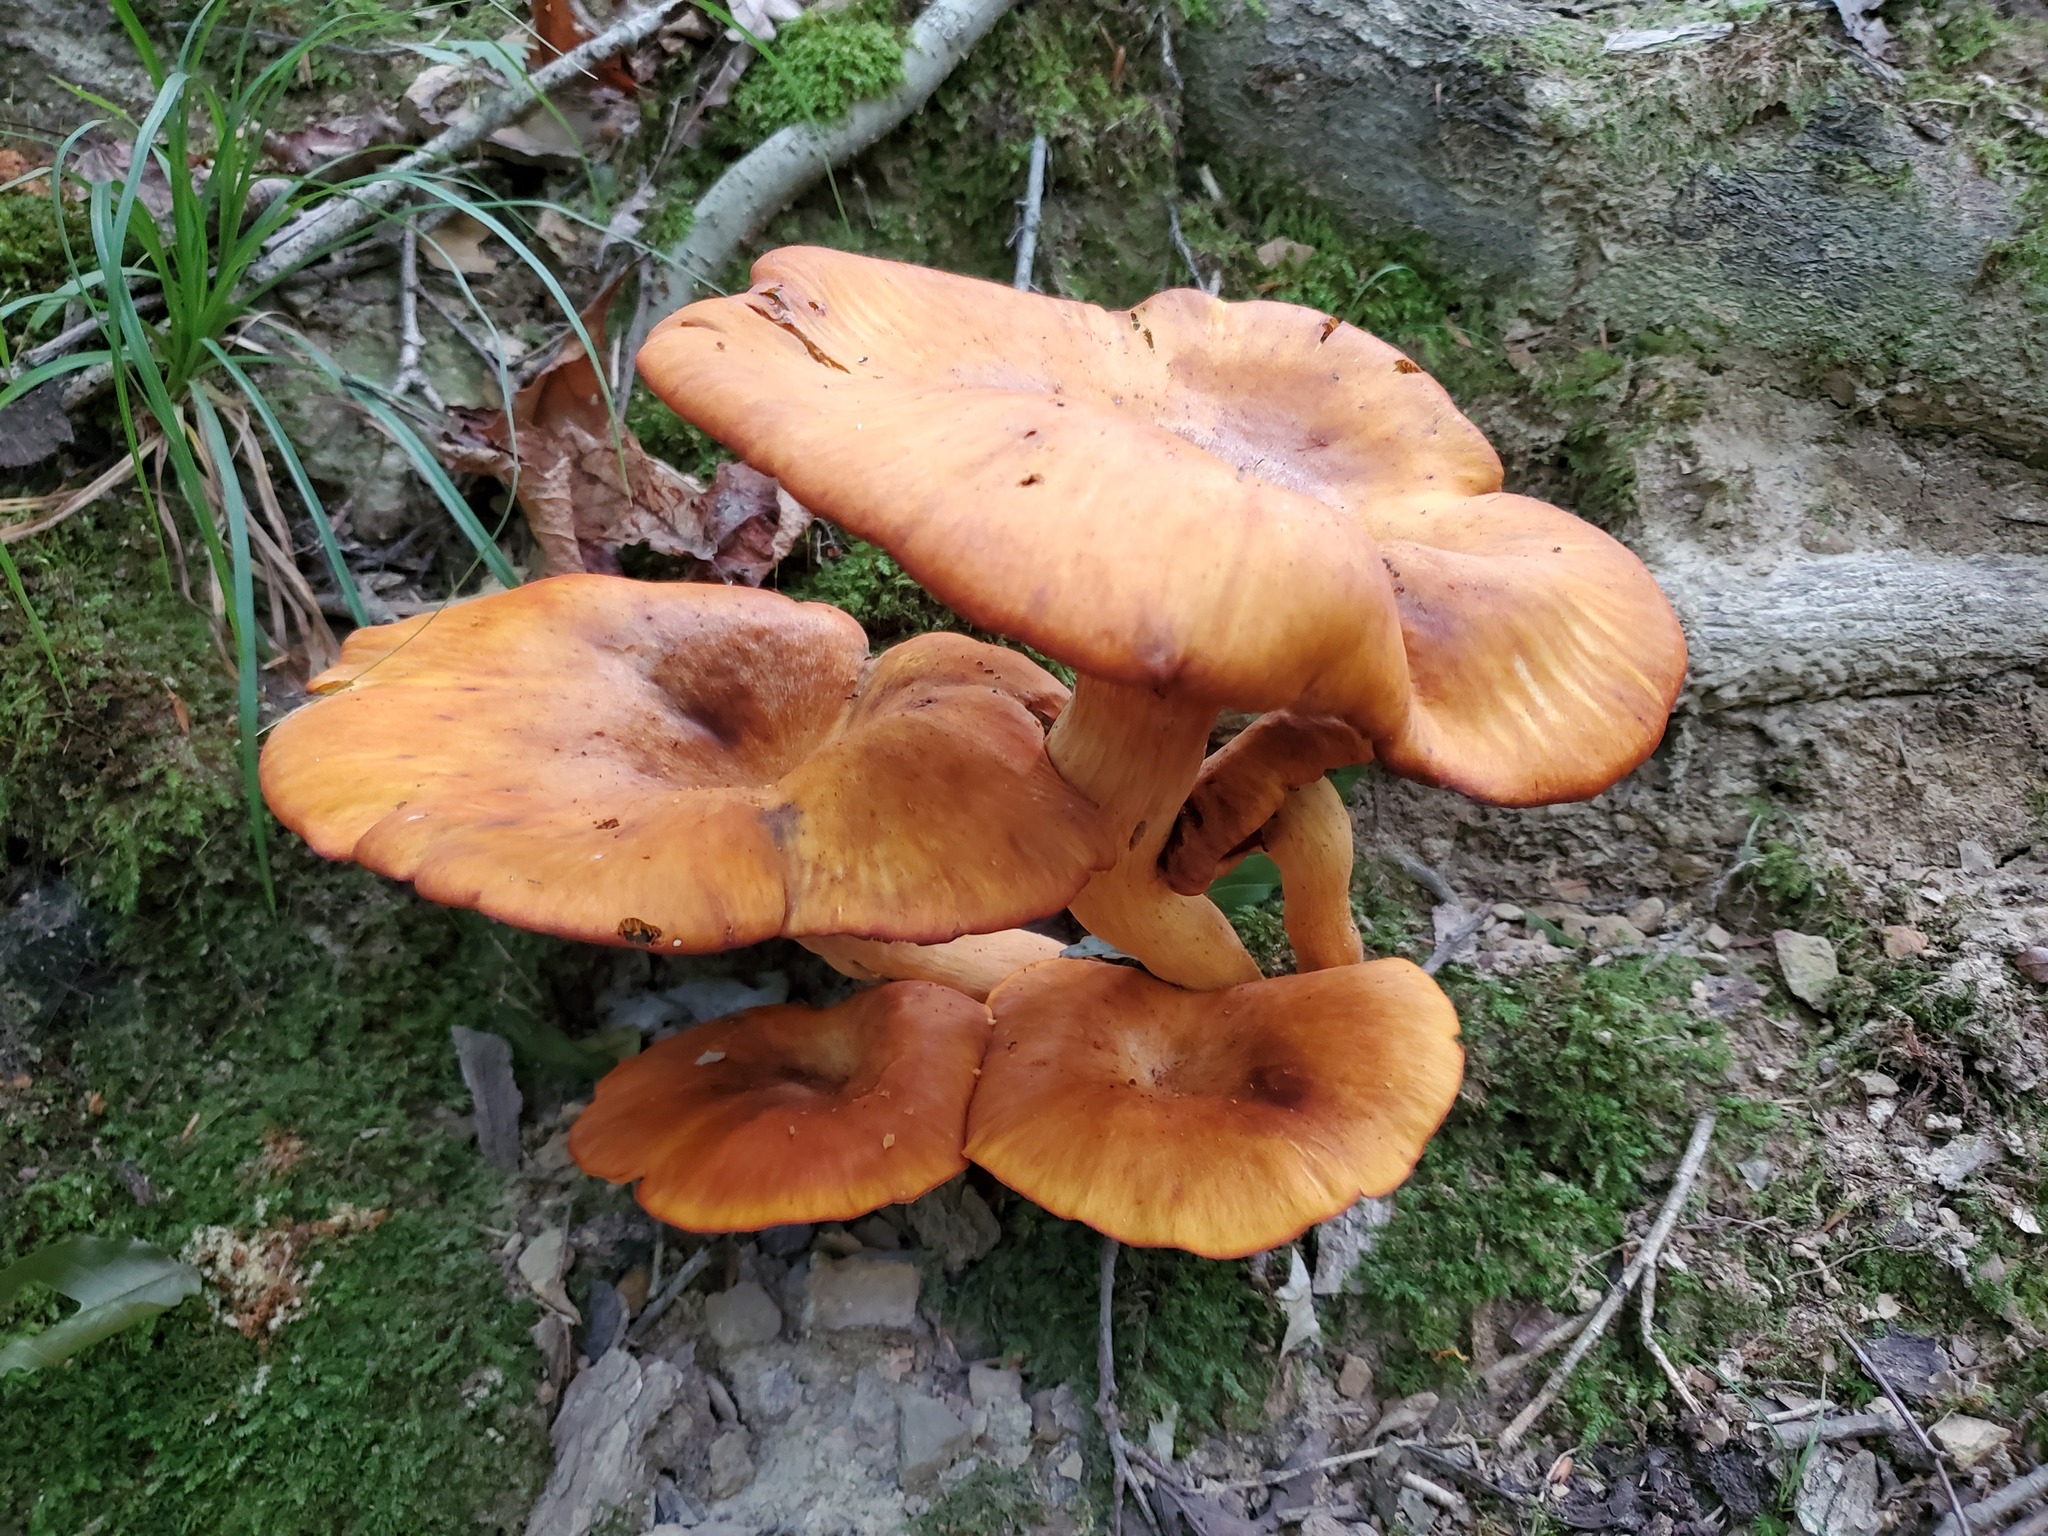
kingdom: Fungi
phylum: Basidiomycota
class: Agaricomycetes
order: Agaricales
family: Omphalotaceae
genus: Omphalotus
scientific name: Omphalotus illudens
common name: Jack o lantern
